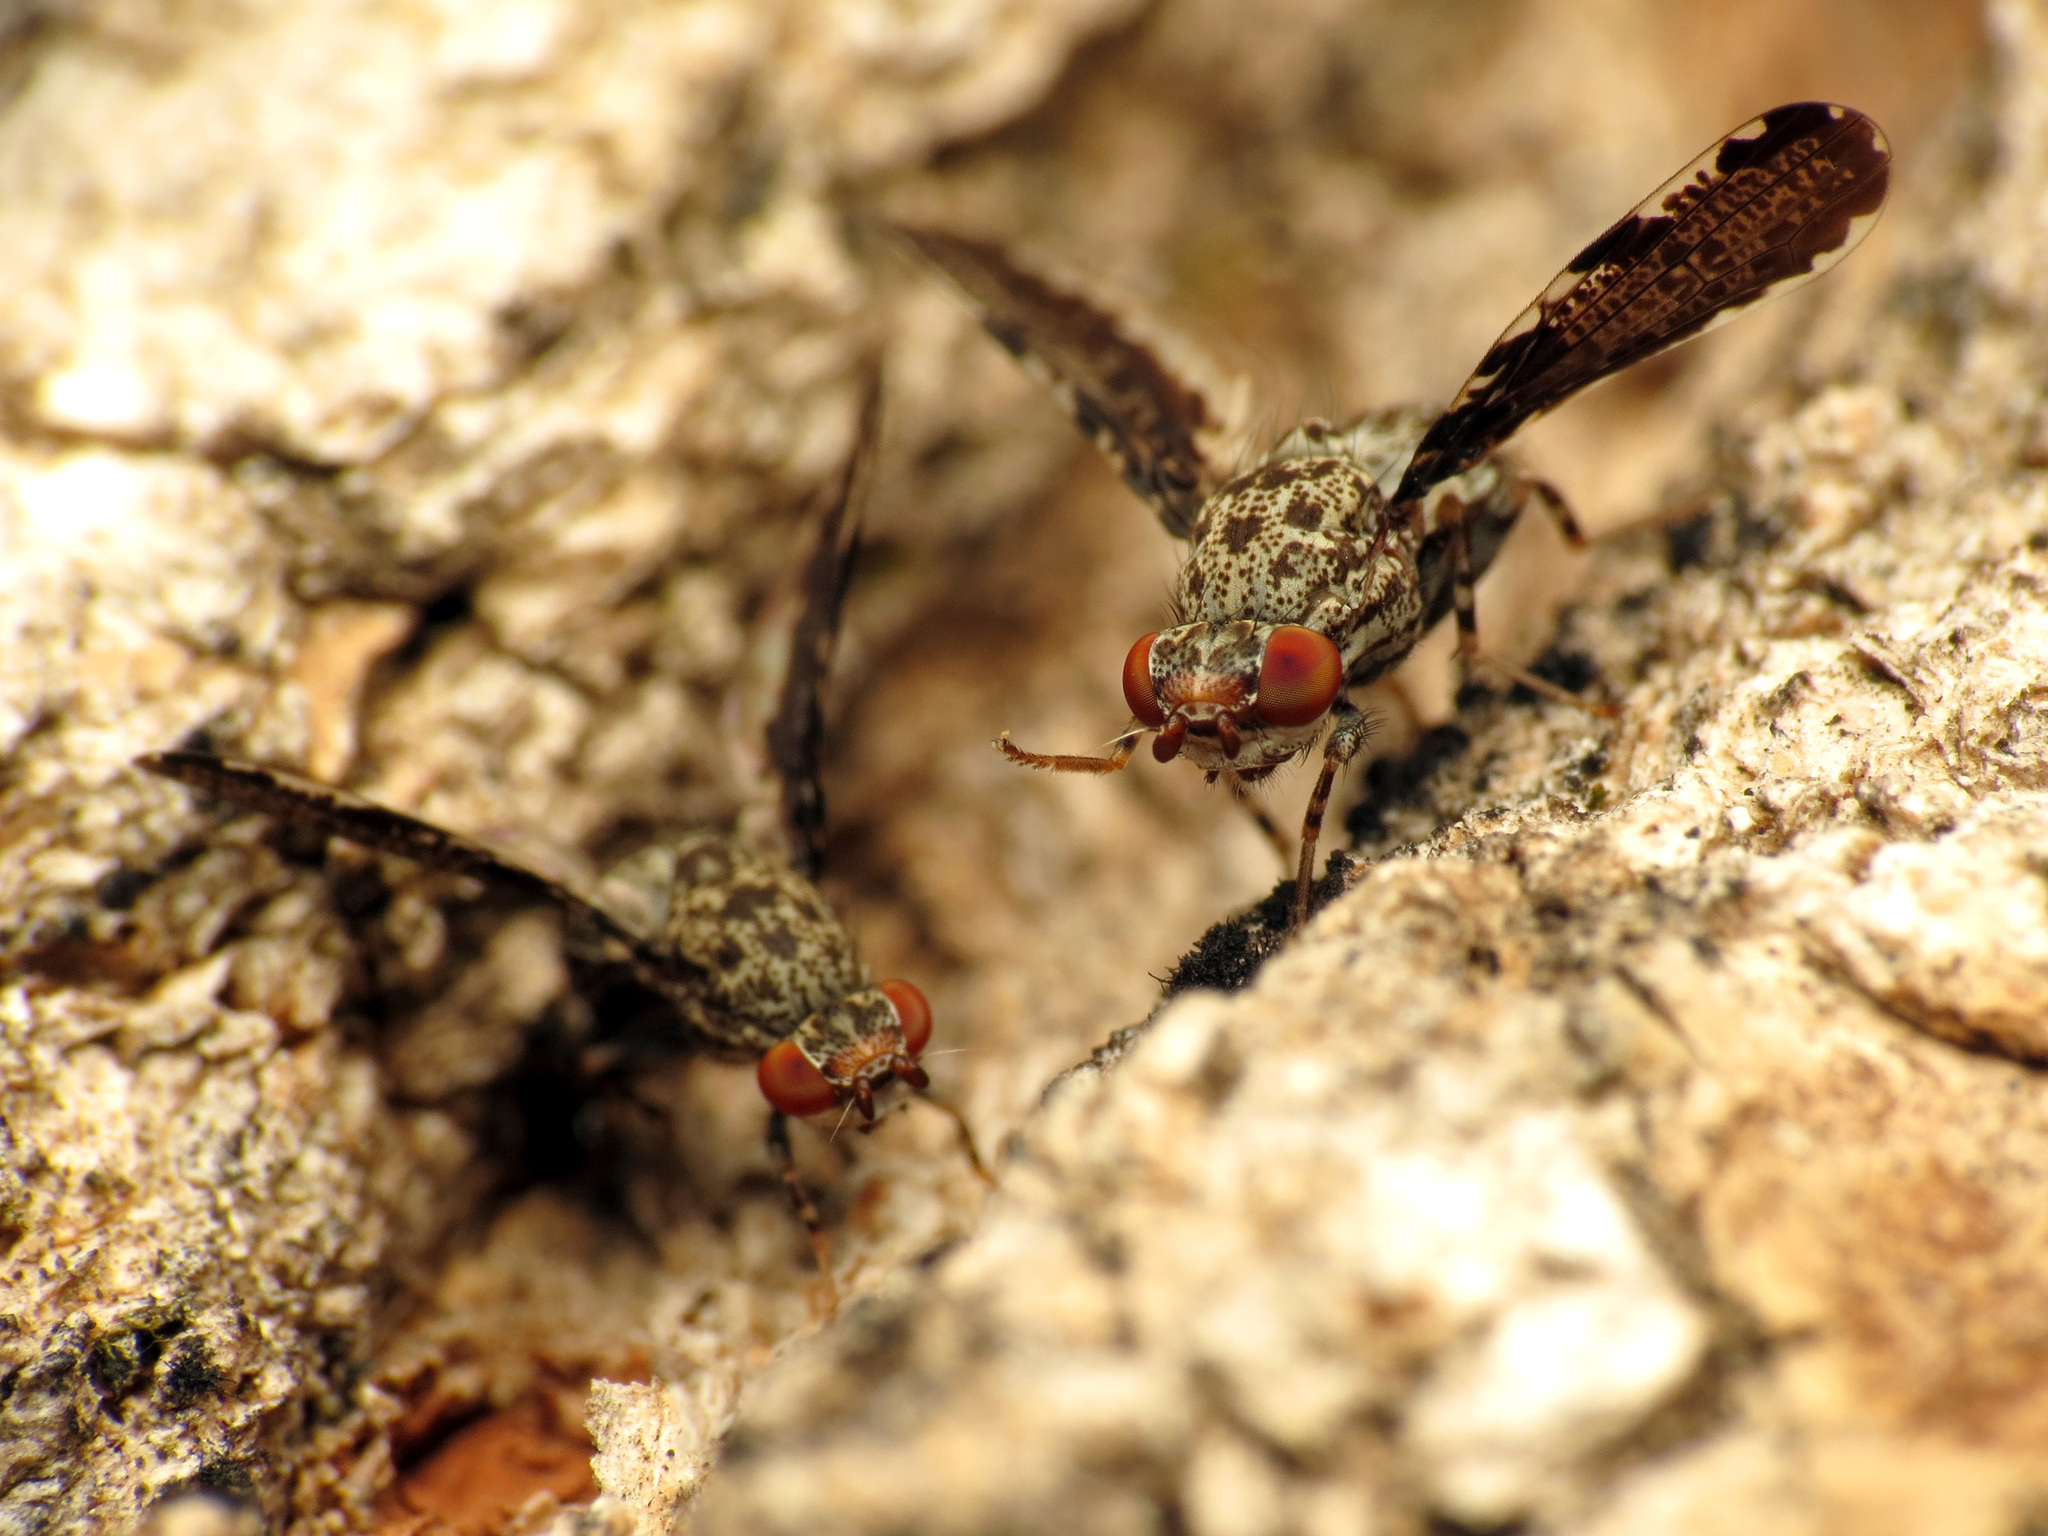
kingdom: Animalia
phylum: Arthropoda
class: Insecta
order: Diptera
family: Ulidiidae
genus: Callopistromyia
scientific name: Callopistromyia strigula
